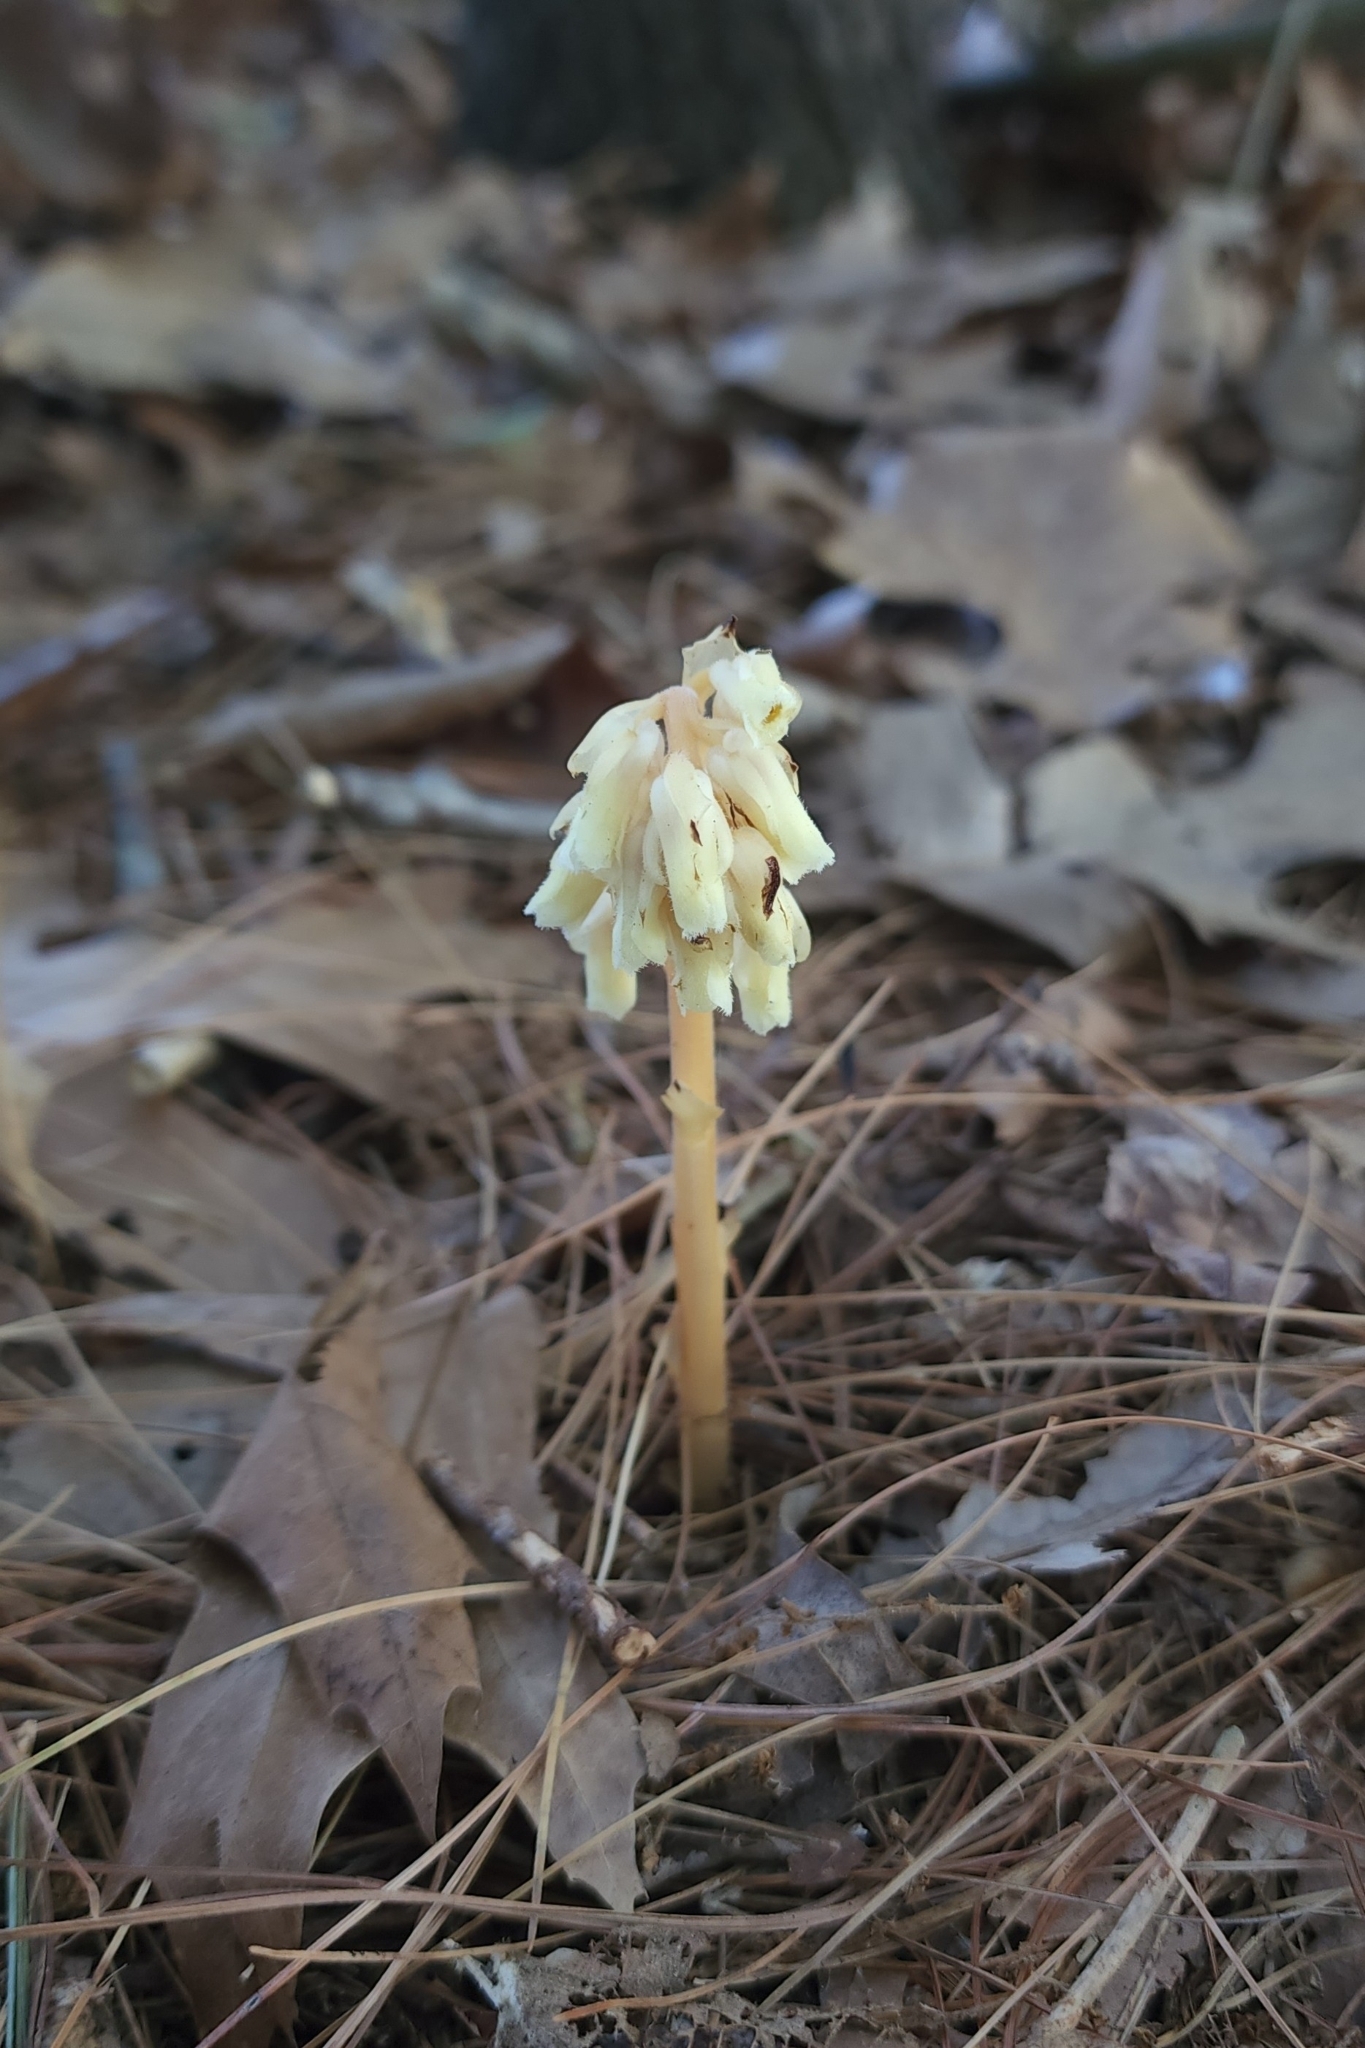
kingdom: Plantae
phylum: Tracheophyta
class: Magnoliopsida
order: Ericales
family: Ericaceae
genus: Hypopitys
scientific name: Hypopitys monotropa
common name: Yellow bird's-nest
